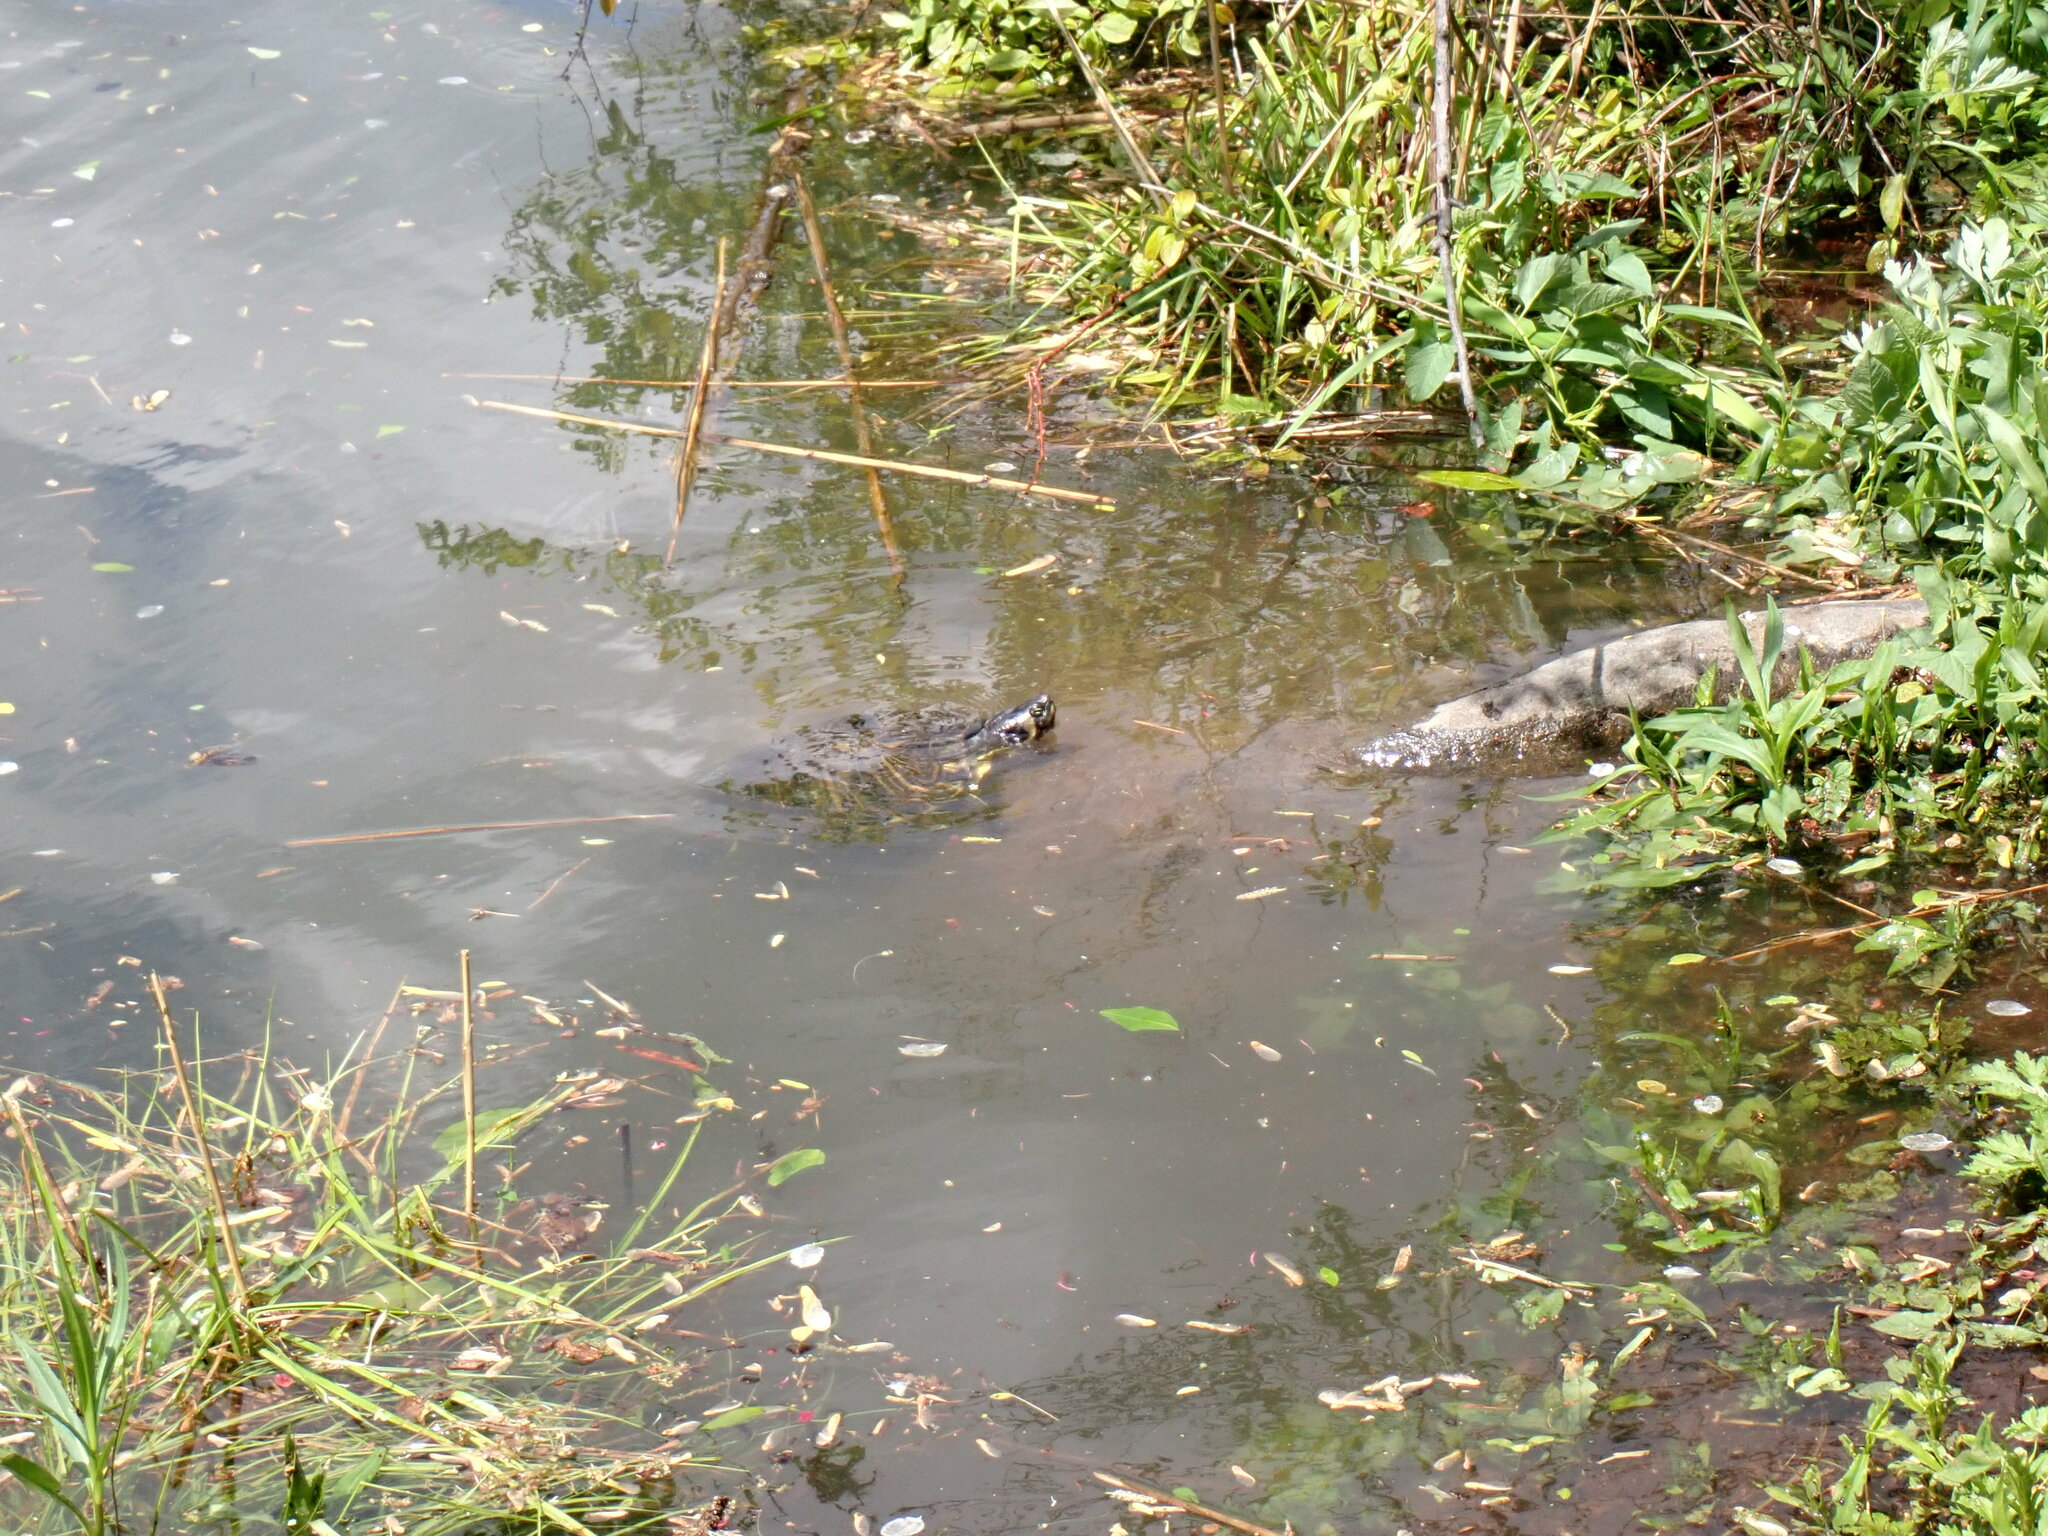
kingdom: Animalia
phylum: Chordata
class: Testudines
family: Emydidae
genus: Trachemys
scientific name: Trachemys scripta
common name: Slider
